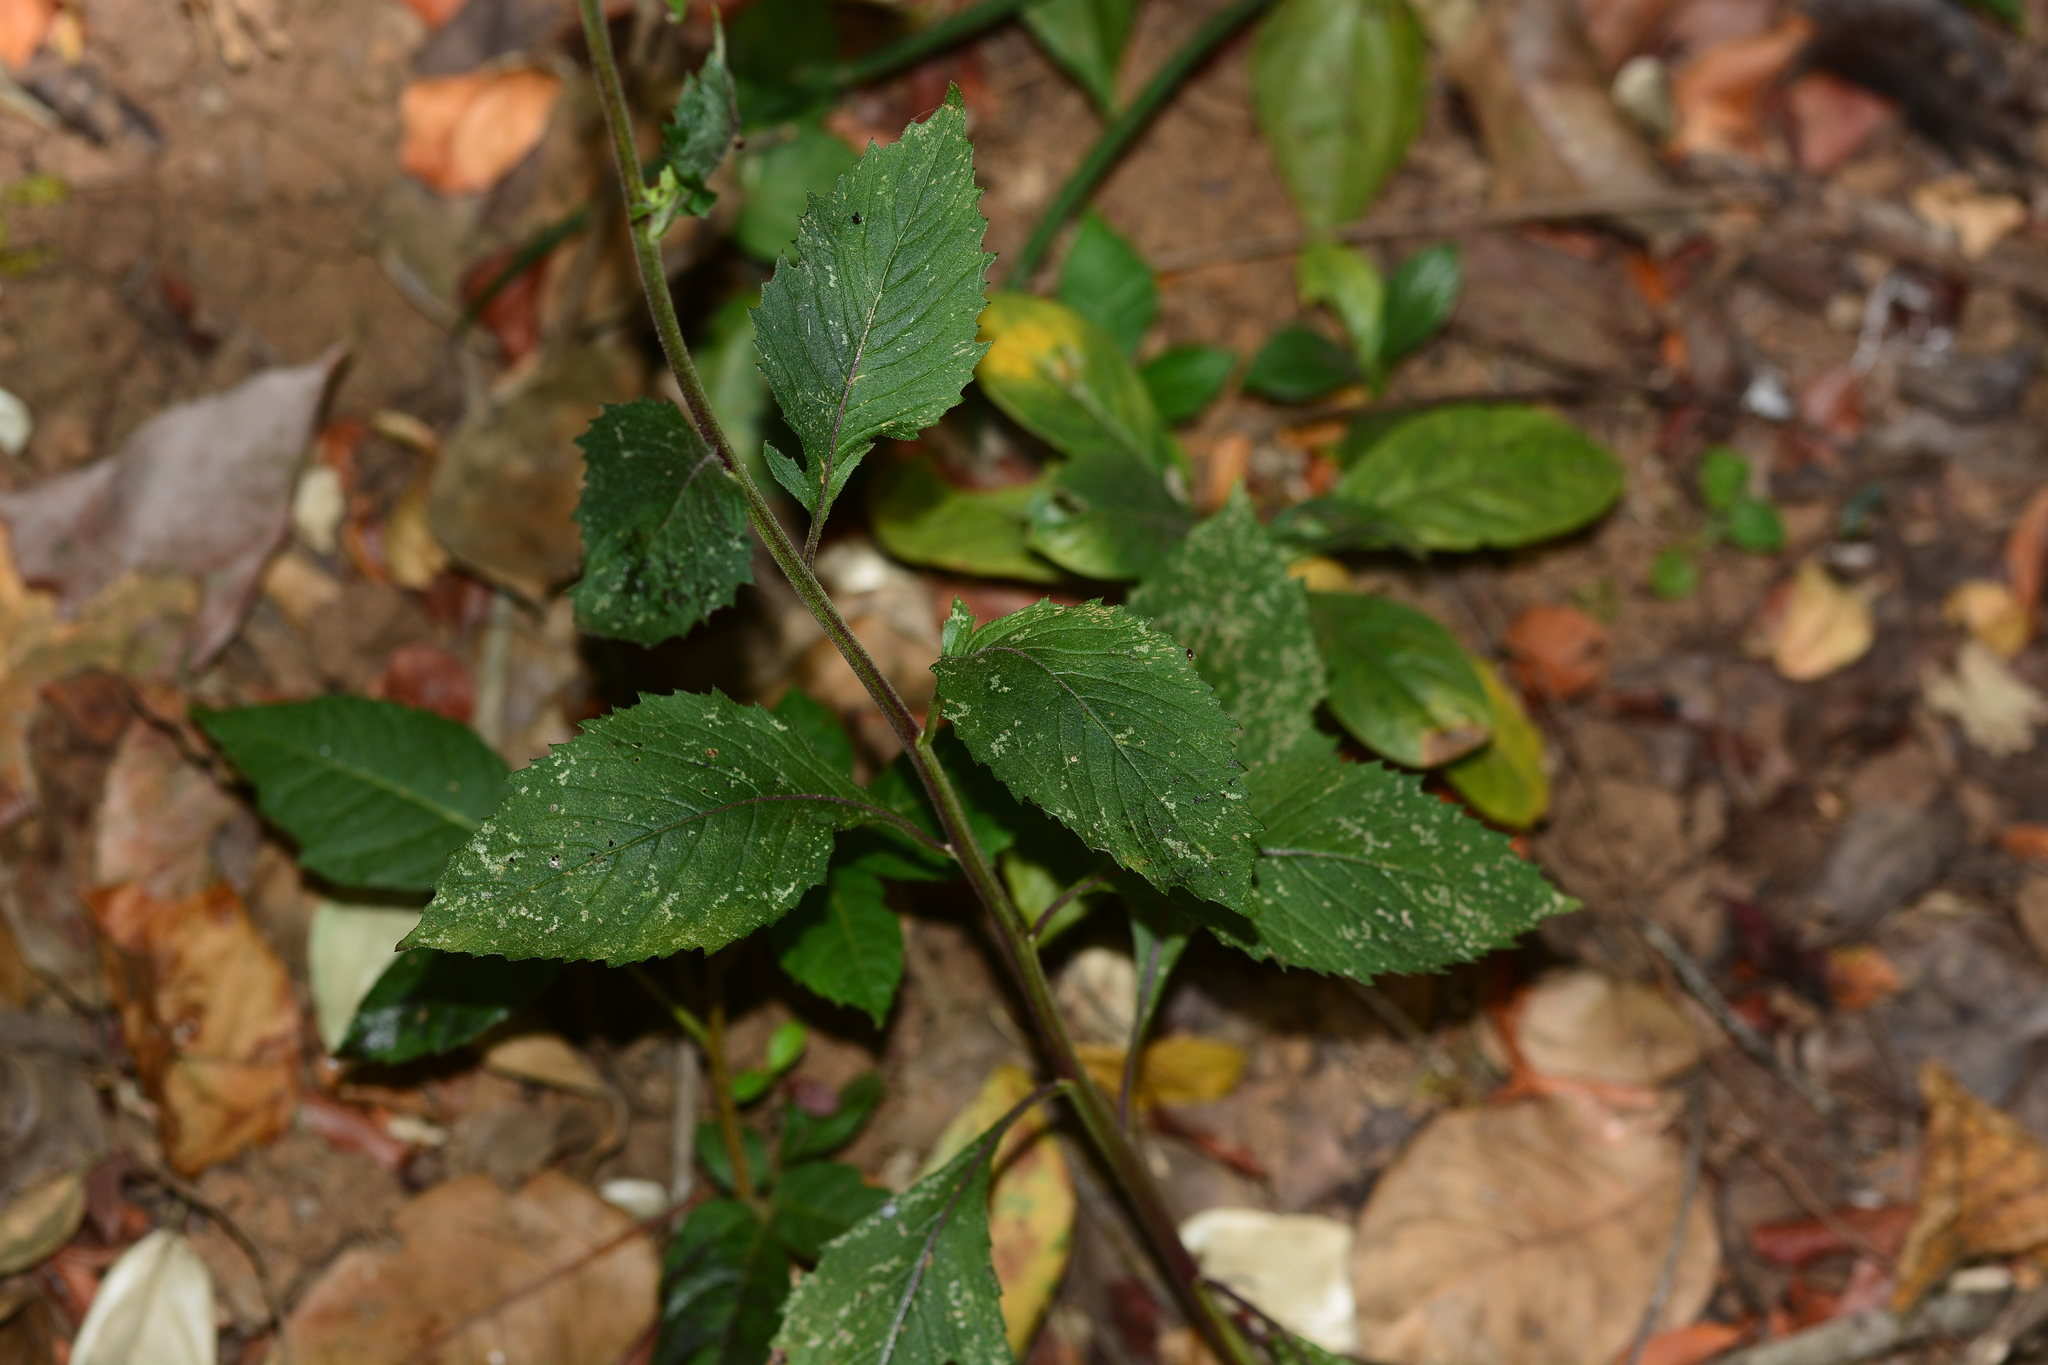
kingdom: Plantae
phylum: Tracheophyta
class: Magnoliopsida
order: Asterales
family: Asteraceae
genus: Crassocephalum
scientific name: Crassocephalum crepidioides
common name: Redflower ragleaf
